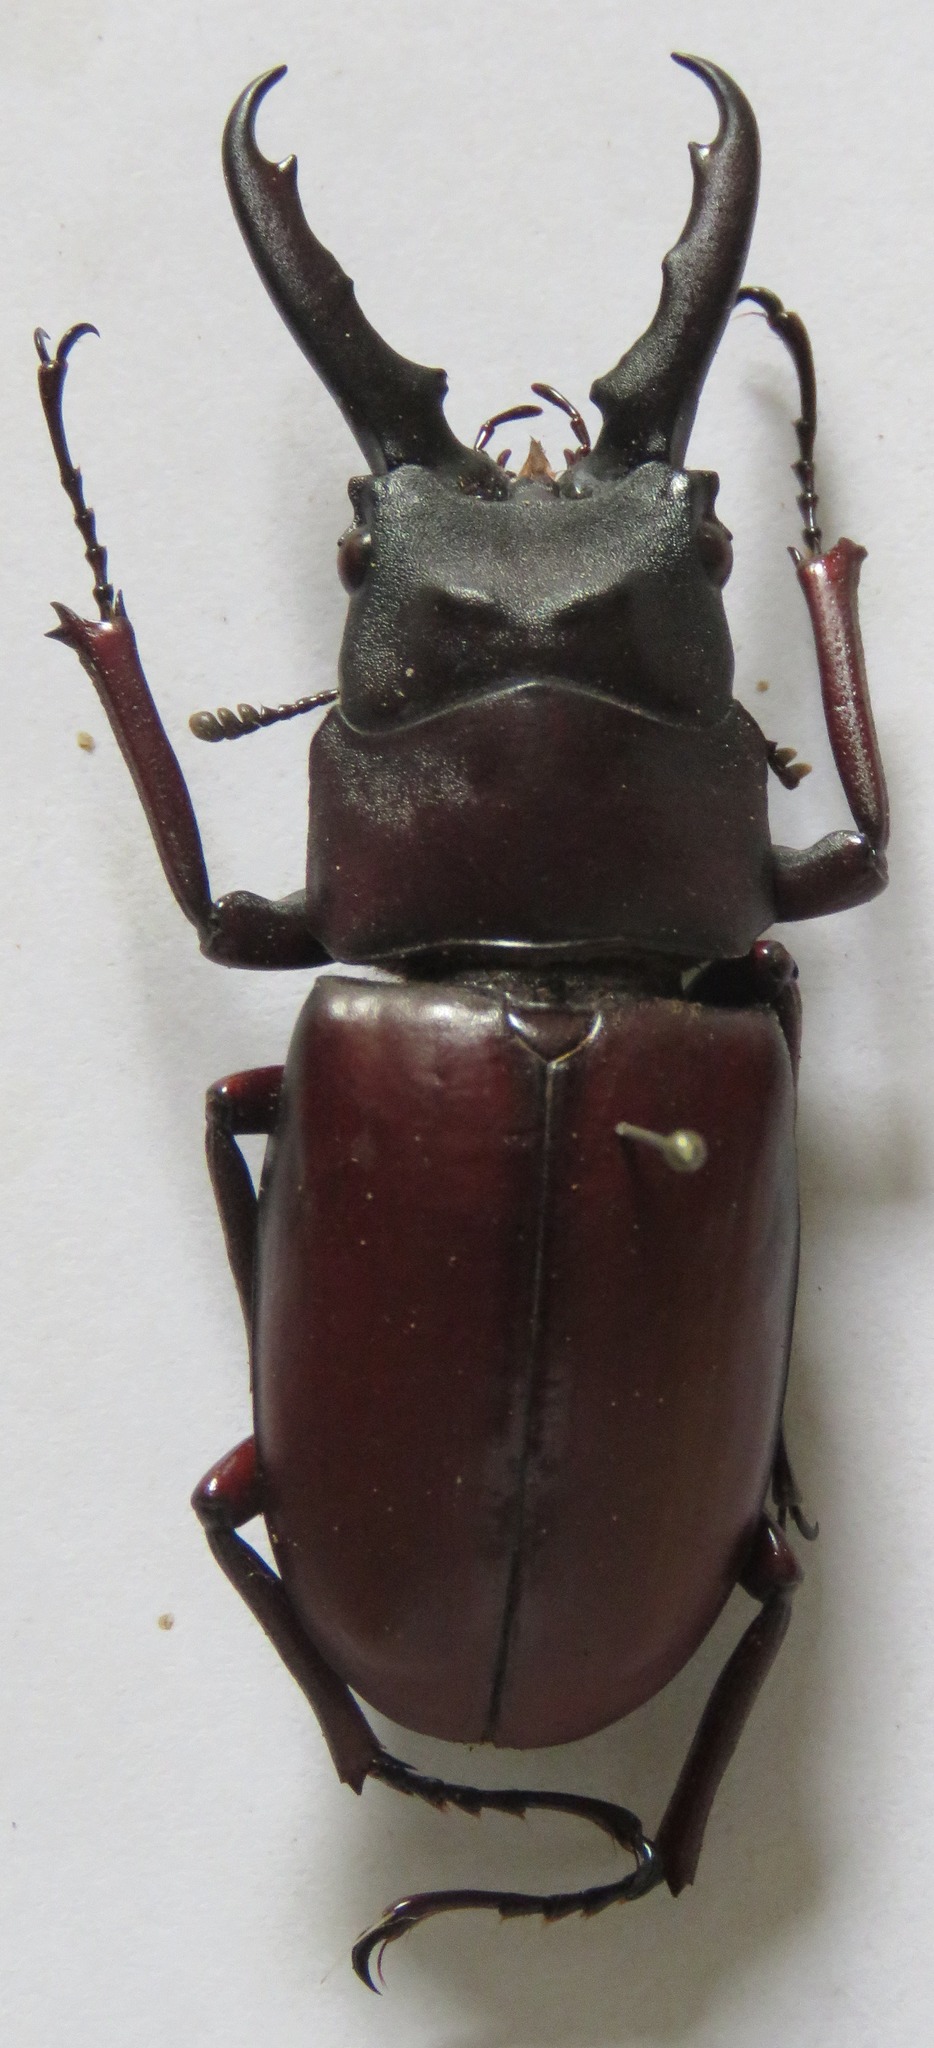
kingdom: Animalia
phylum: Arthropoda
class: Insecta
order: Coleoptera
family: Lucanidae
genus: Prosopocoilus
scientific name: Prosopocoilus myrmecoleon
